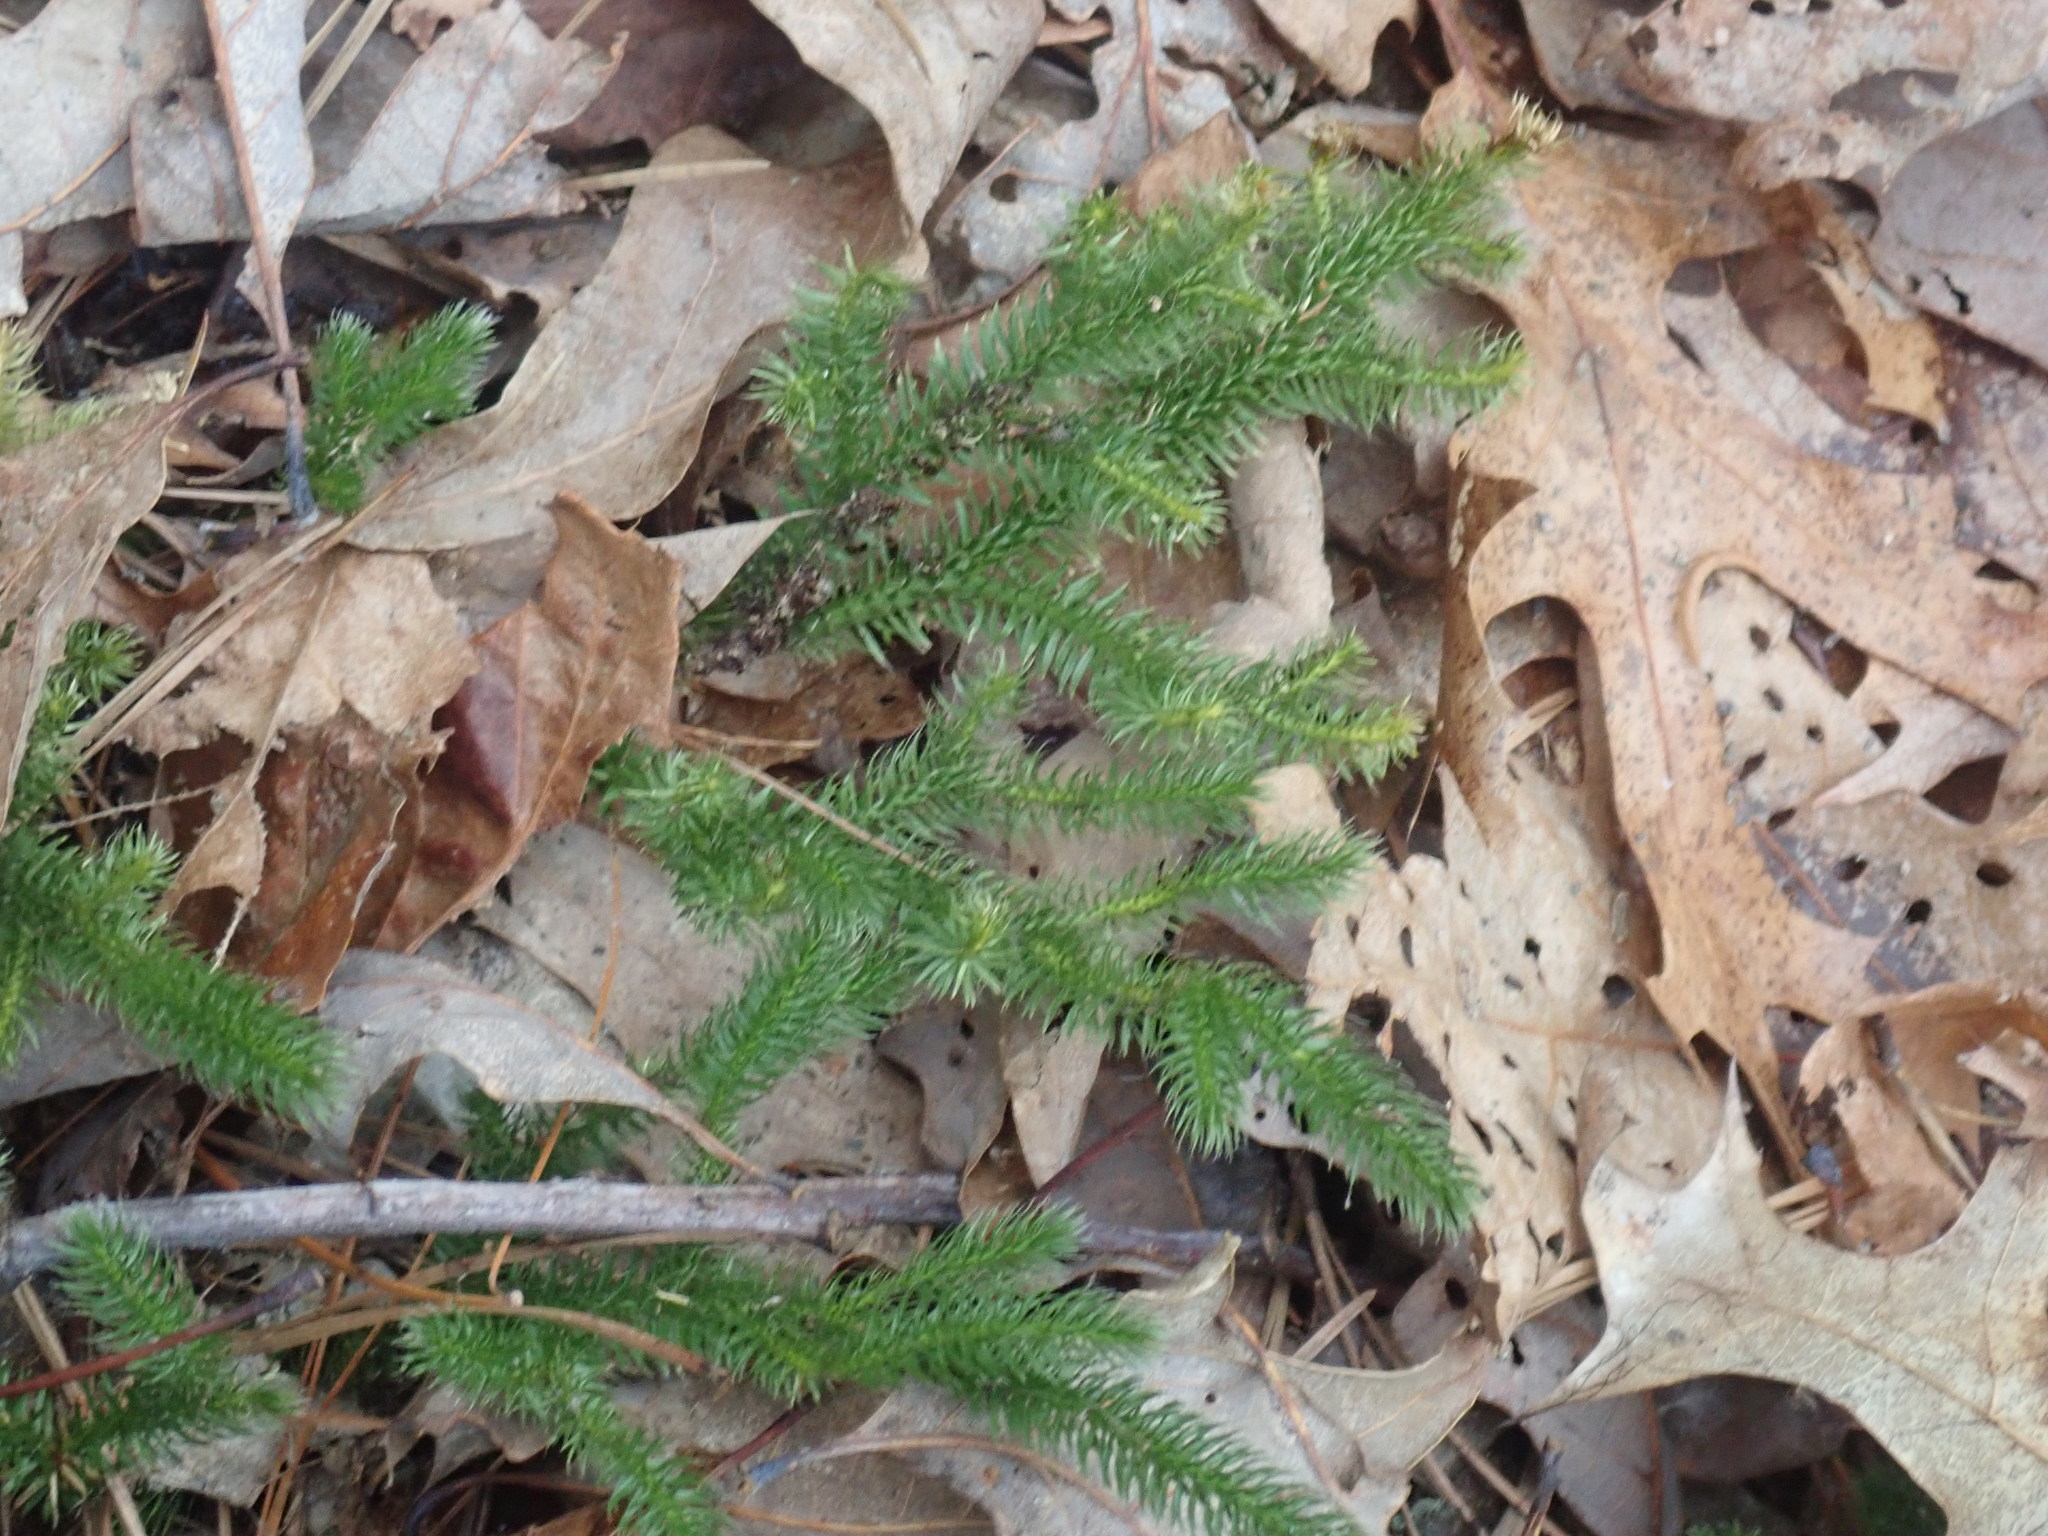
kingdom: Plantae
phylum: Tracheophyta
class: Lycopodiopsida
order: Lycopodiales
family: Lycopodiaceae
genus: Lycopodium
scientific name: Lycopodium clavatum
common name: Stag's-horn clubmoss
